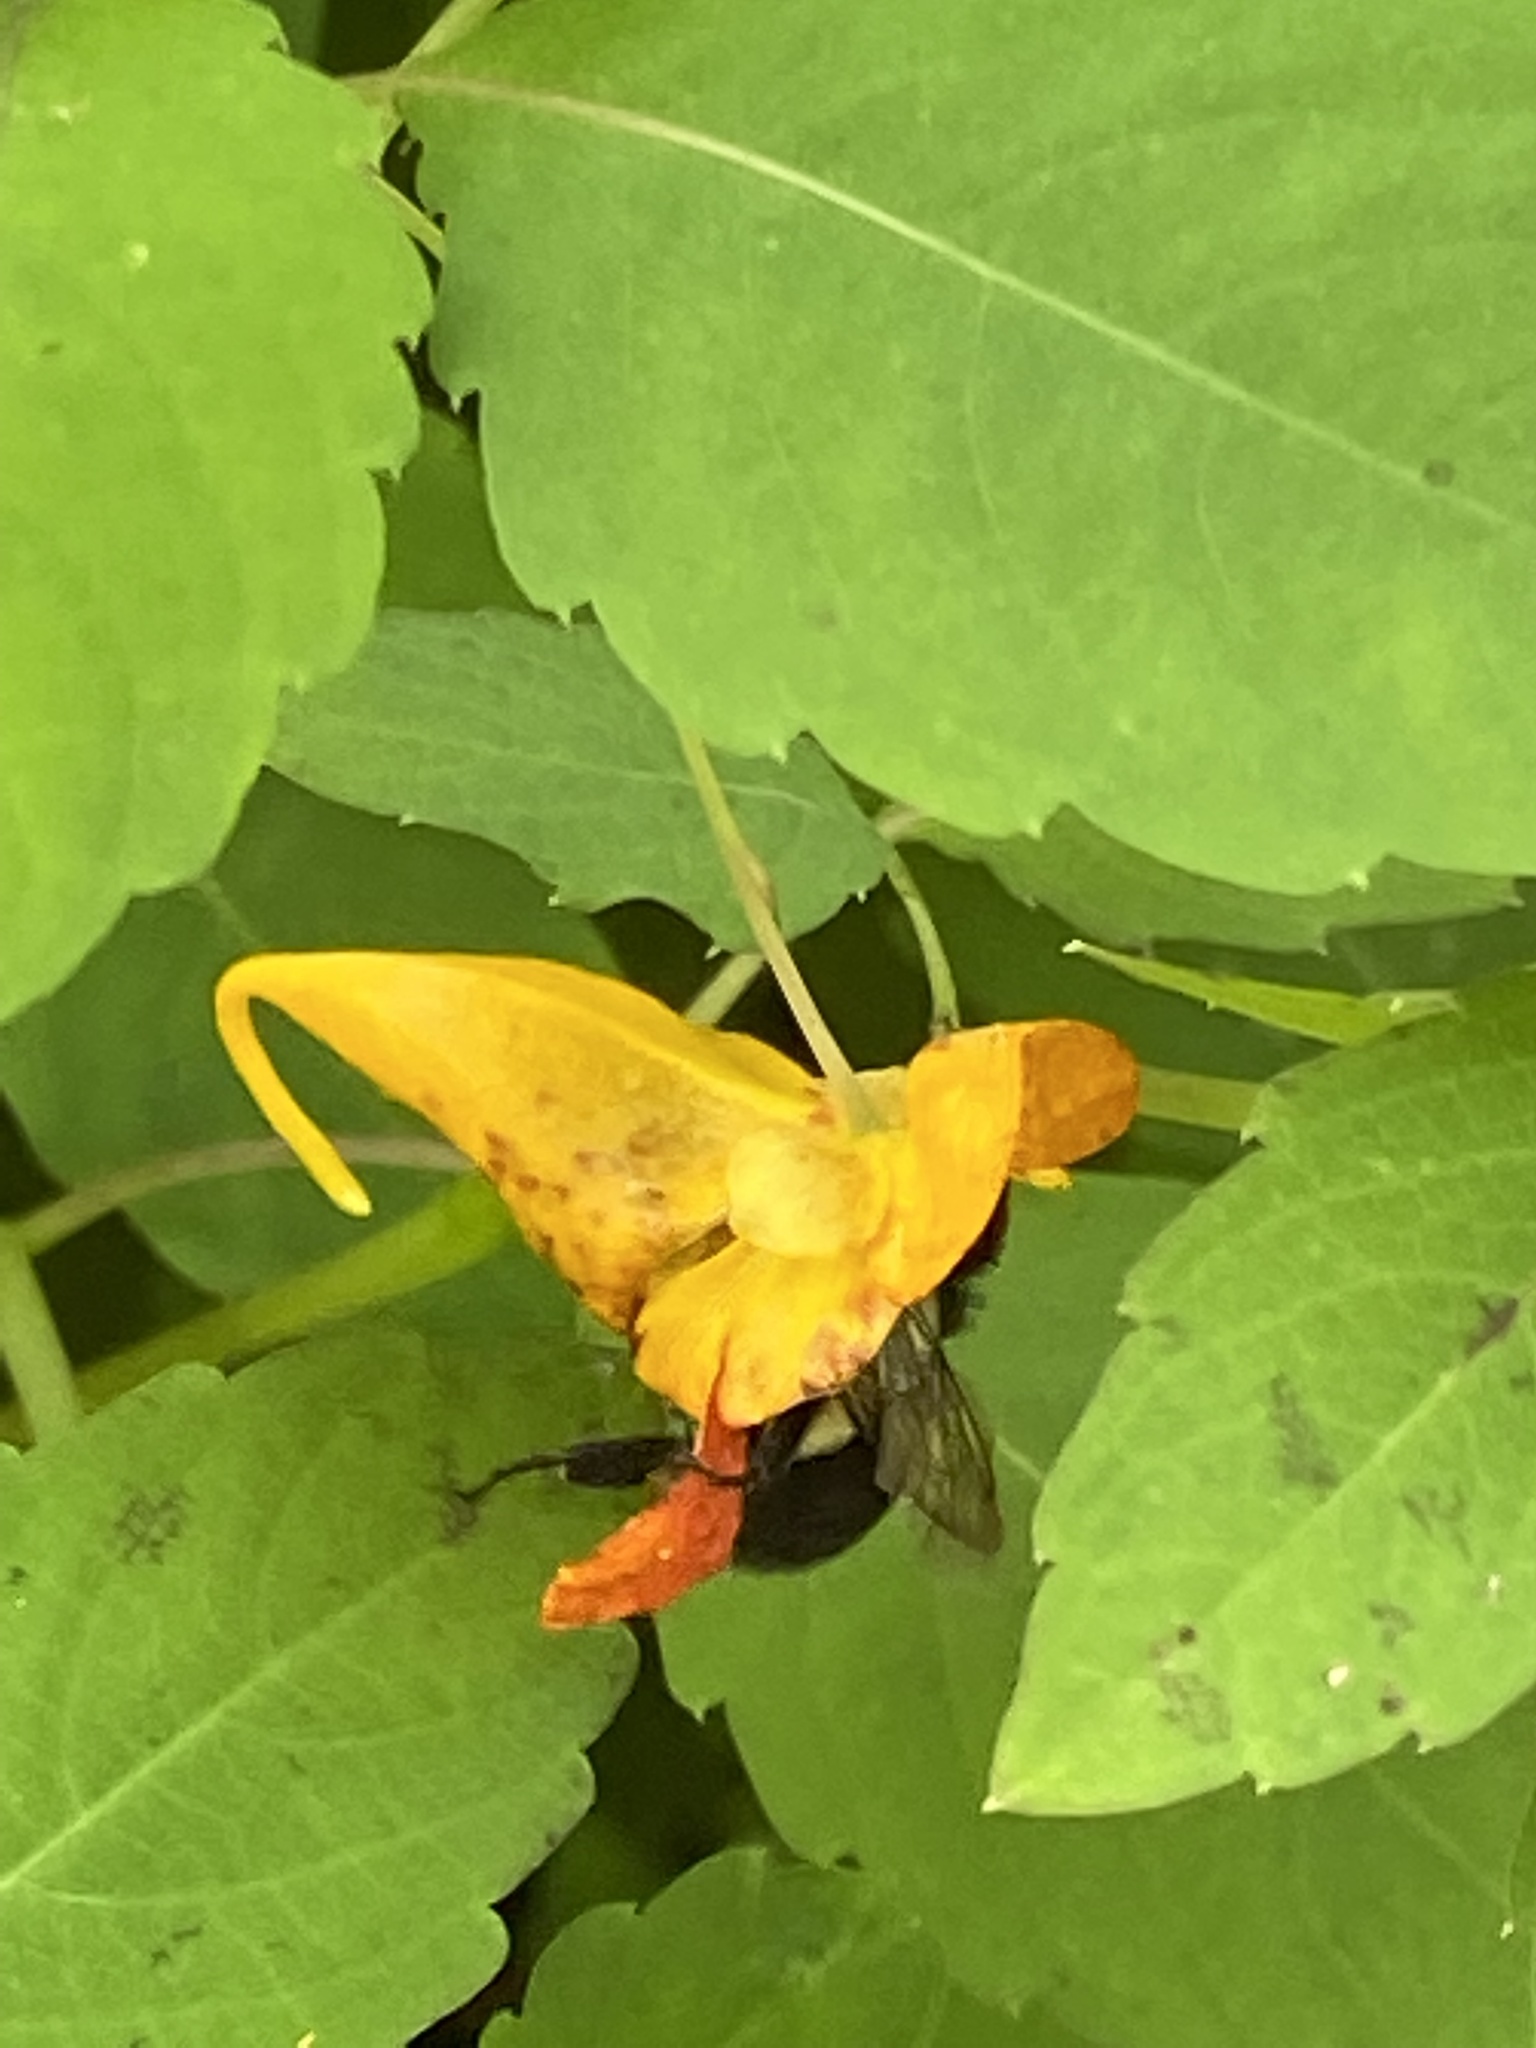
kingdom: Animalia
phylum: Arthropoda
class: Insecta
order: Hymenoptera
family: Apidae
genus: Bombus
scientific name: Bombus impatiens
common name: Common eastern bumble bee
